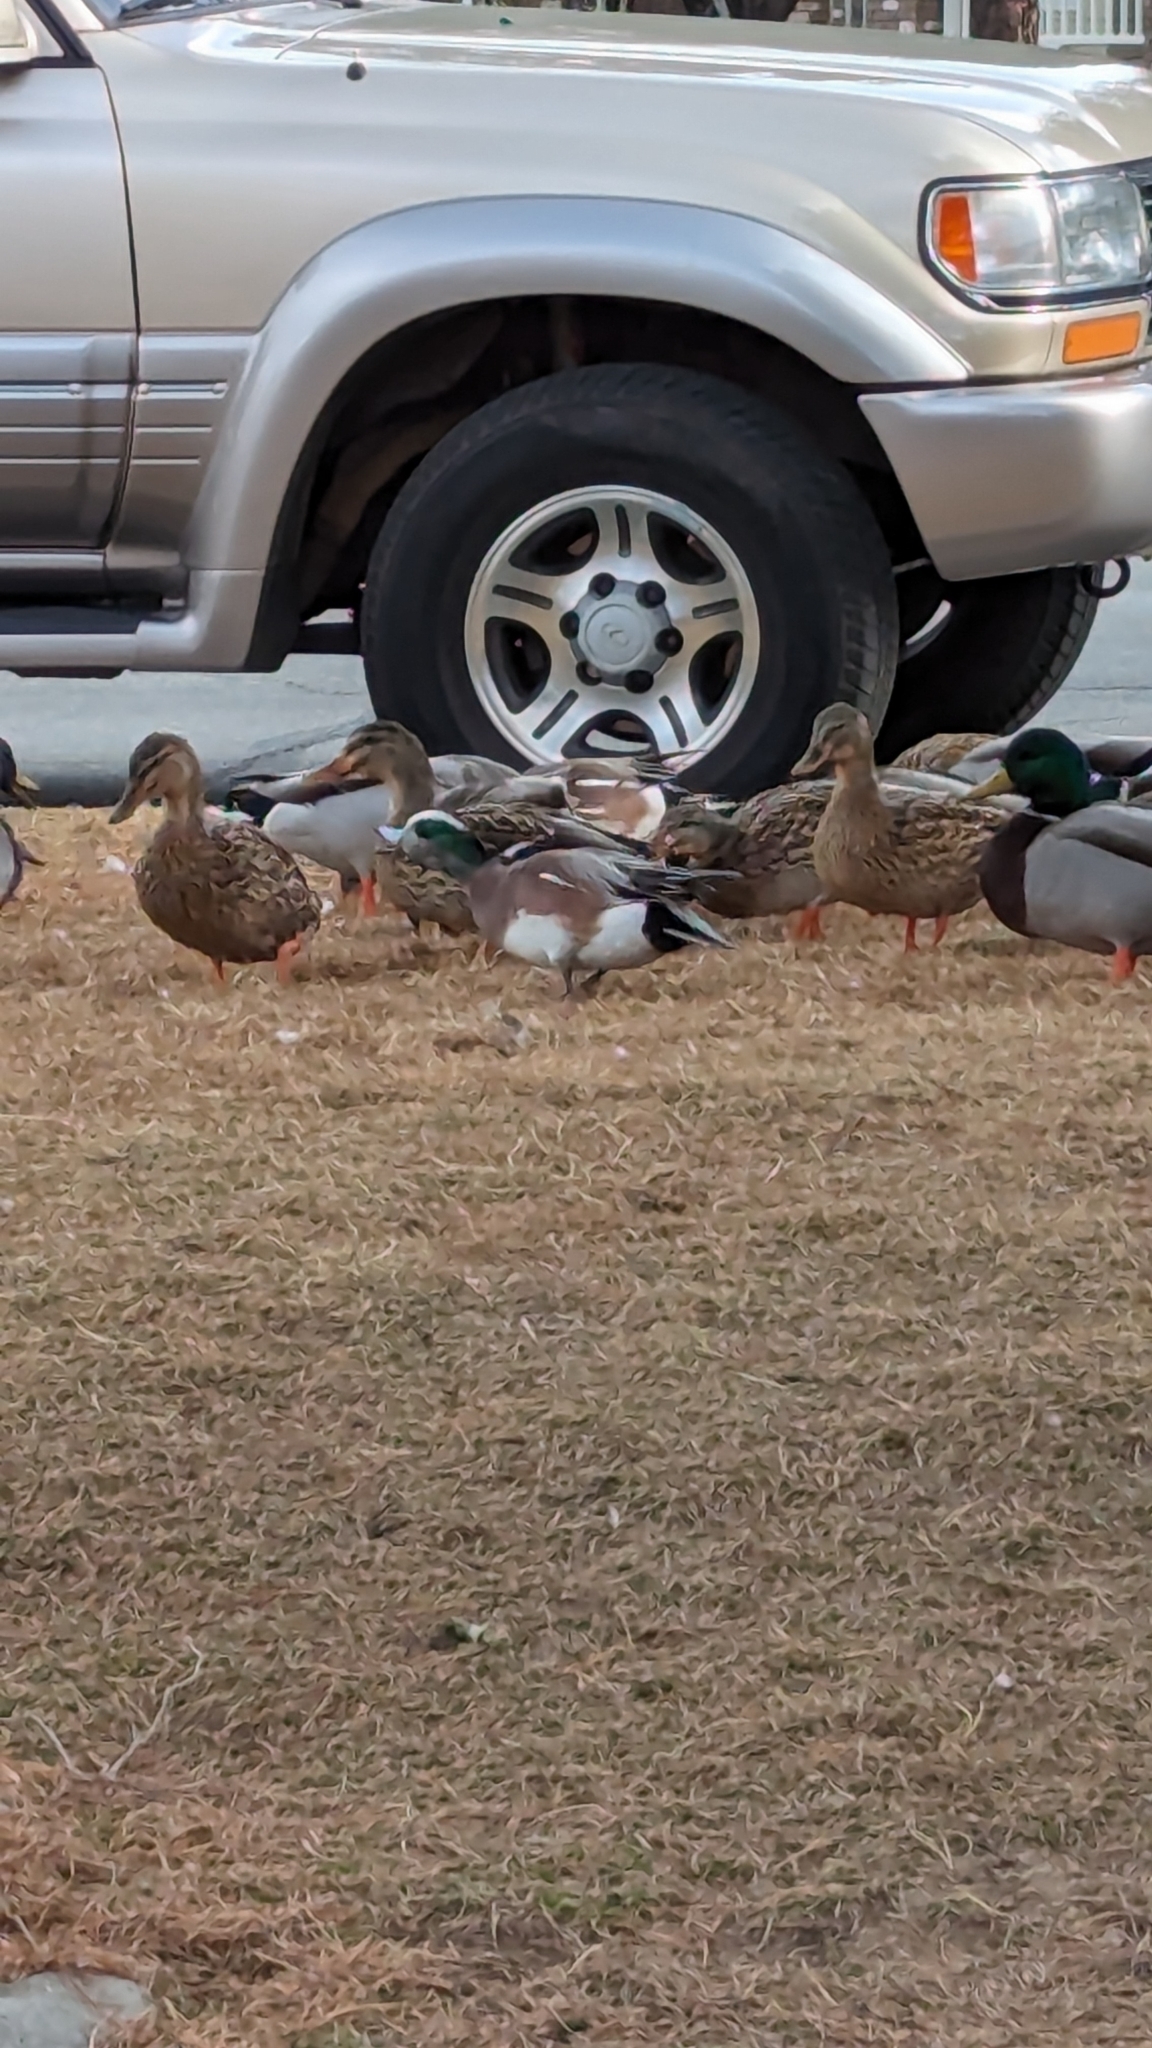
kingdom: Animalia
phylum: Chordata
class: Aves
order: Anseriformes
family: Anatidae
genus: Mareca
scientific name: Mareca americana
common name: American wigeon
